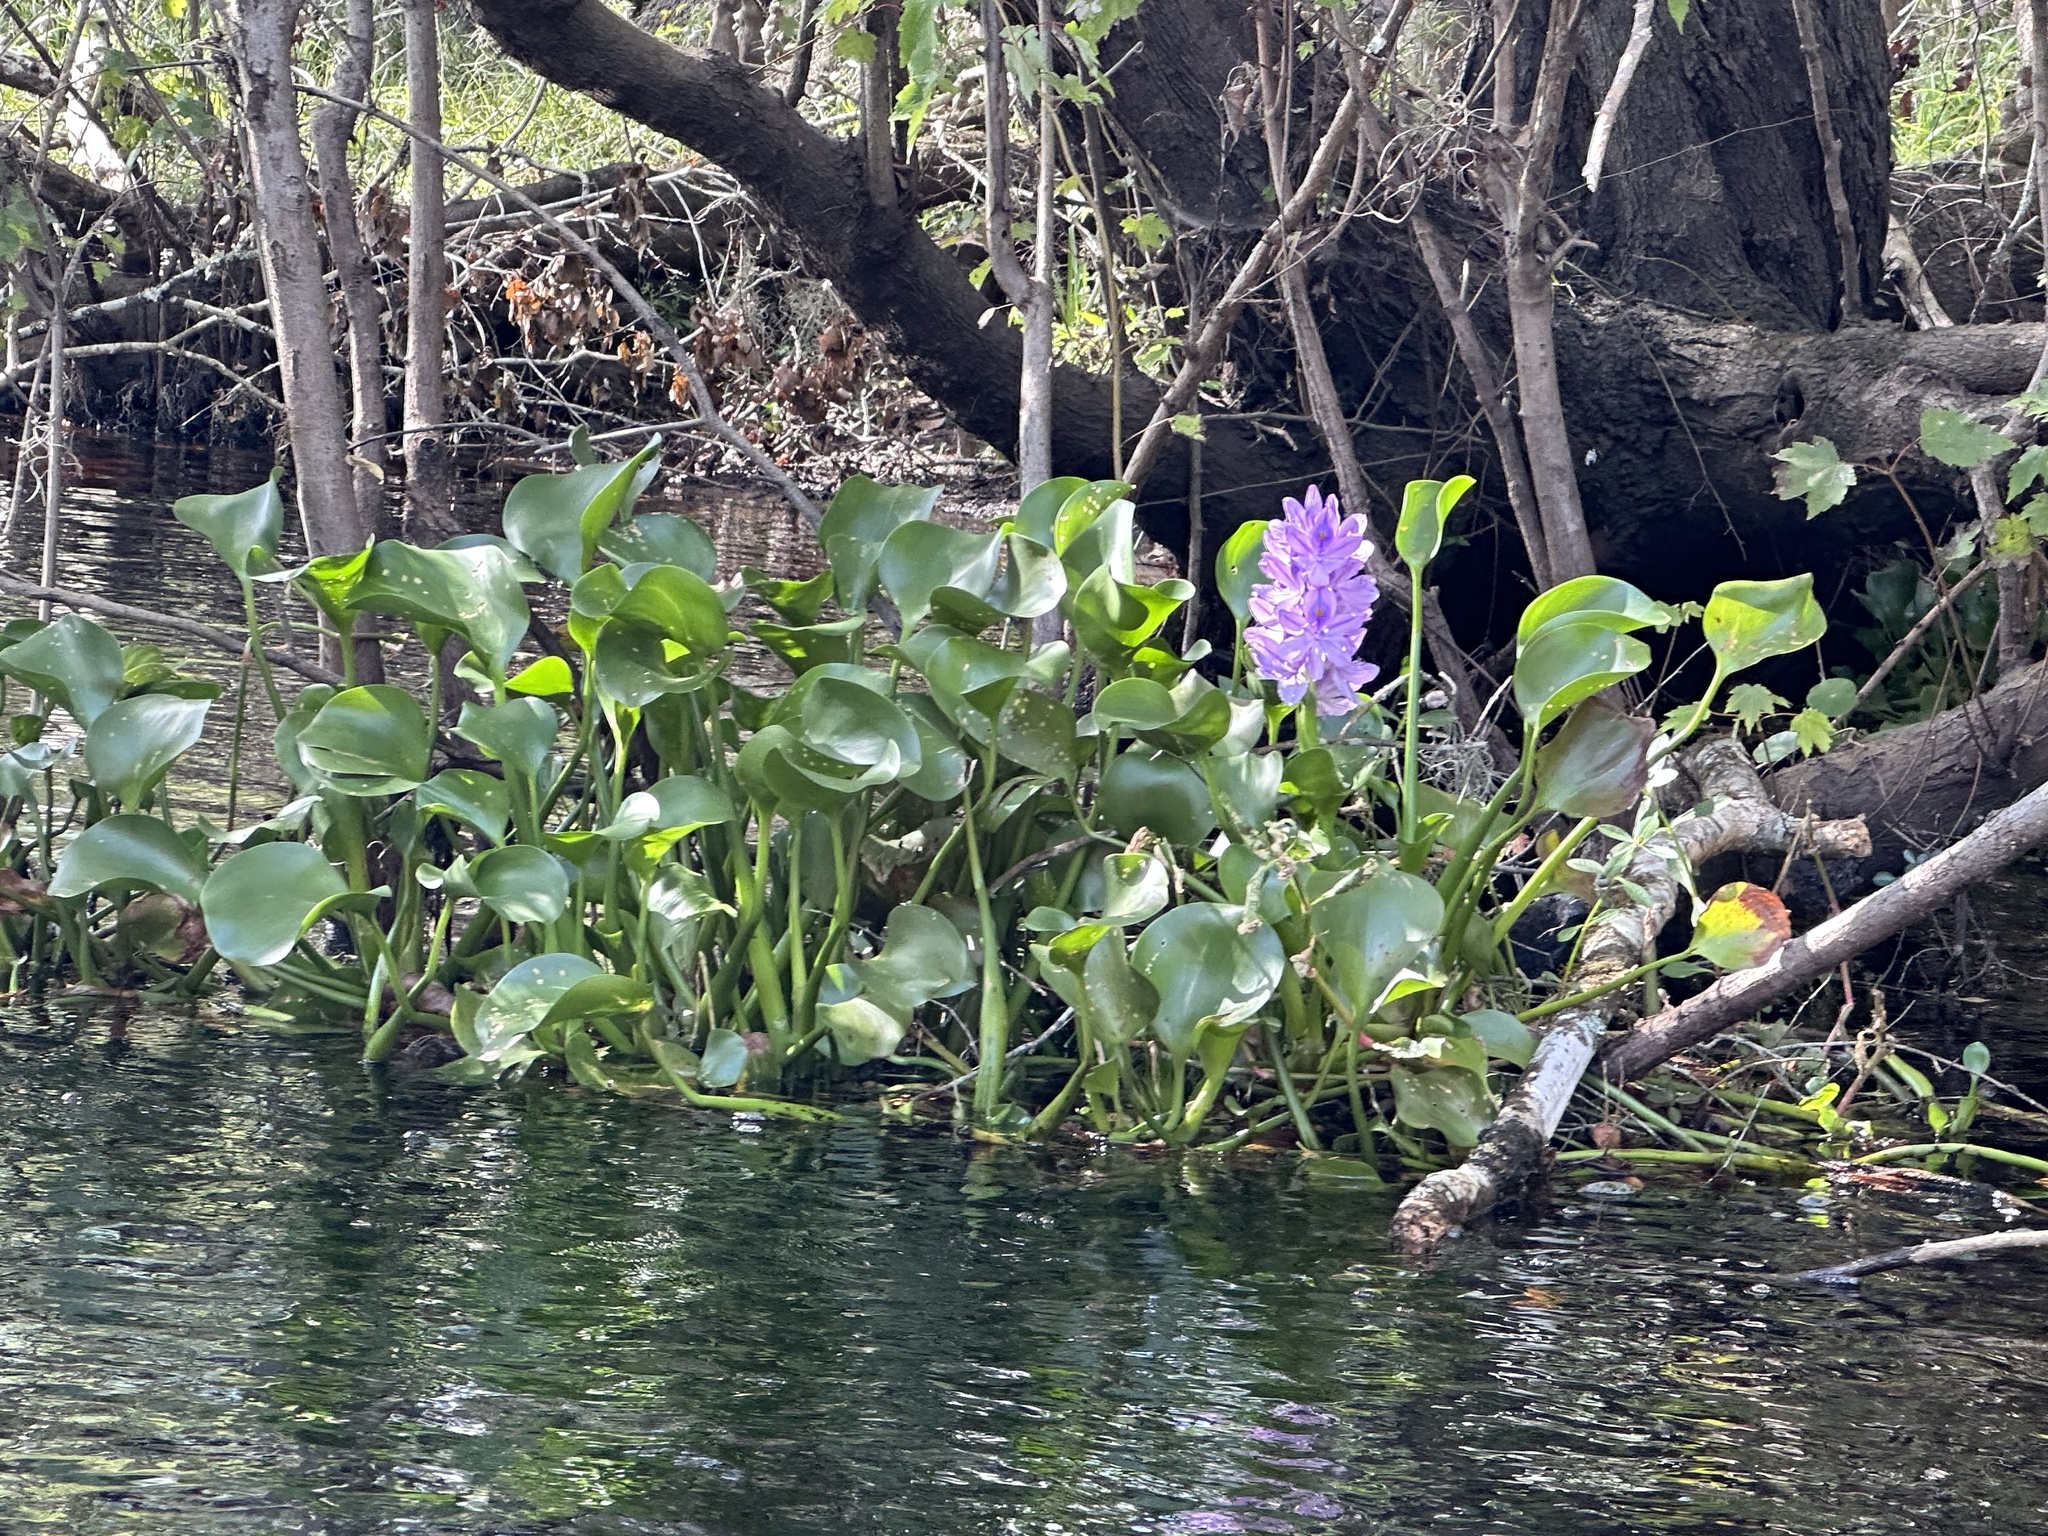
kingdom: Plantae
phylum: Tracheophyta
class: Liliopsida
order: Commelinales
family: Pontederiaceae
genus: Pontederia
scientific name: Pontederia crassipes
